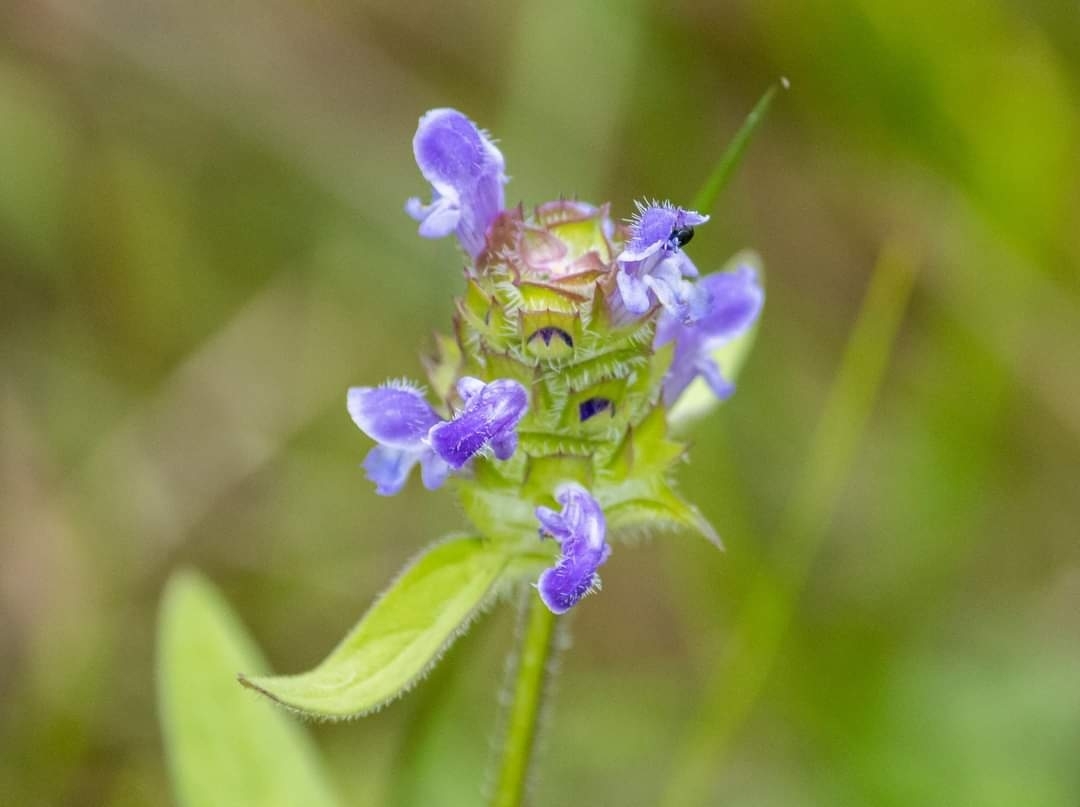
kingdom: Plantae
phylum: Tracheophyta
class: Magnoliopsida
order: Lamiales
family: Lamiaceae
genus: Prunella
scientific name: Prunella vulgaris
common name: Heal-all
